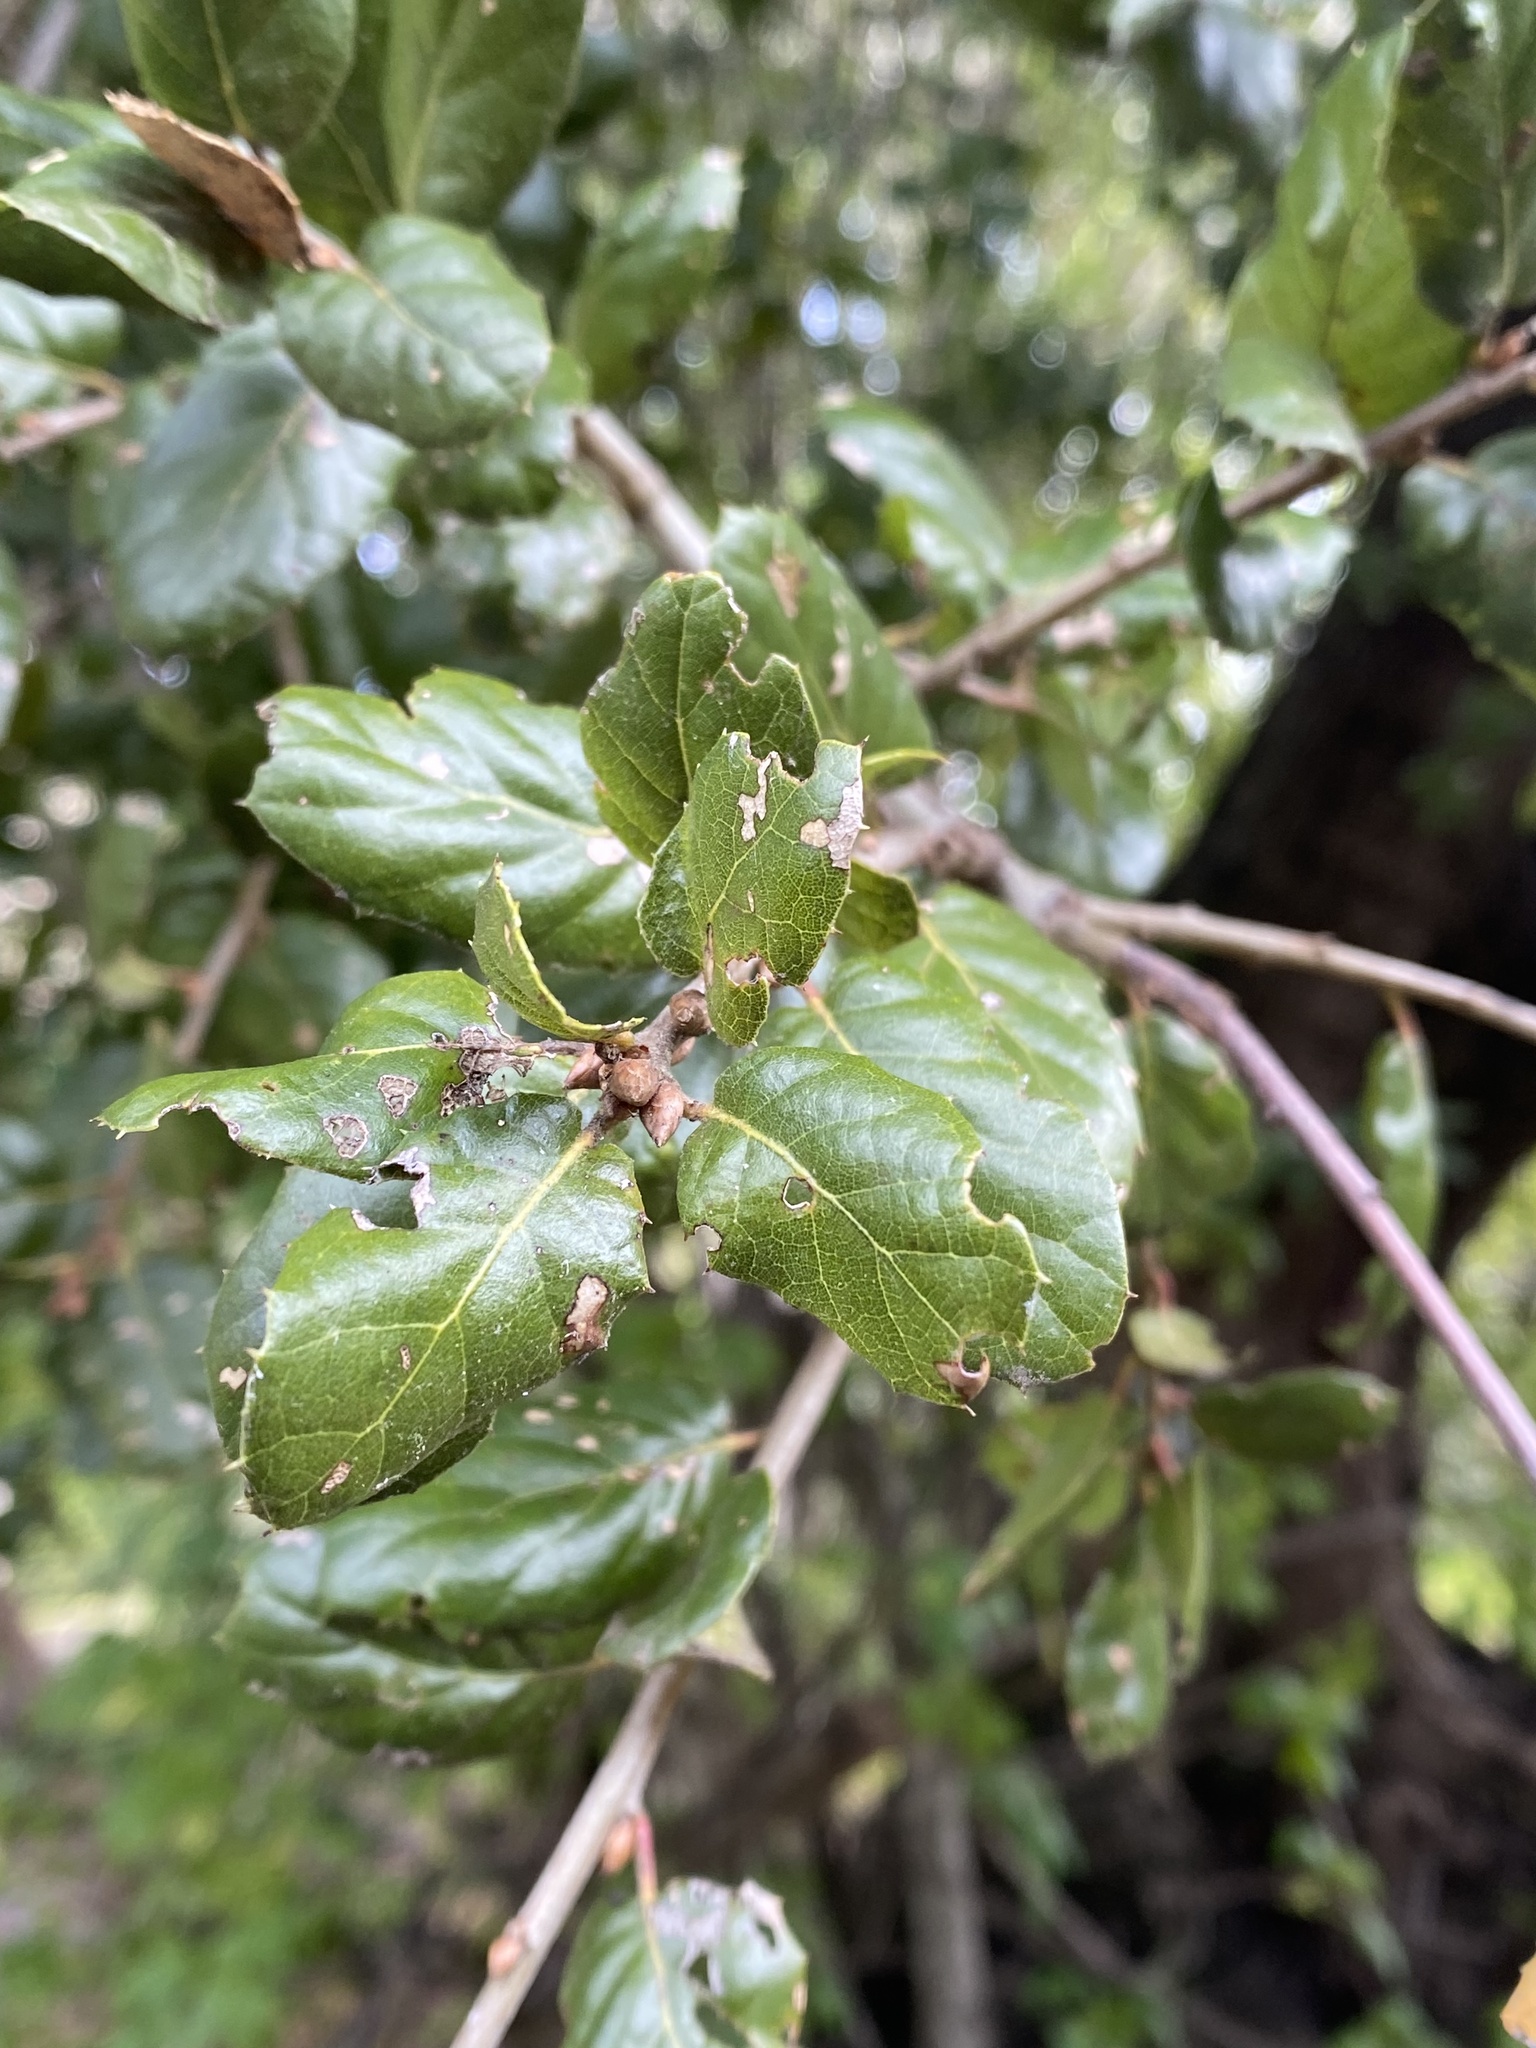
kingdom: Plantae
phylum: Tracheophyta
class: Magnoliopsida
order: Fagales
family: Fagaceae
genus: Quercus
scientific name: Quercus agrifolia
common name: California live oak
